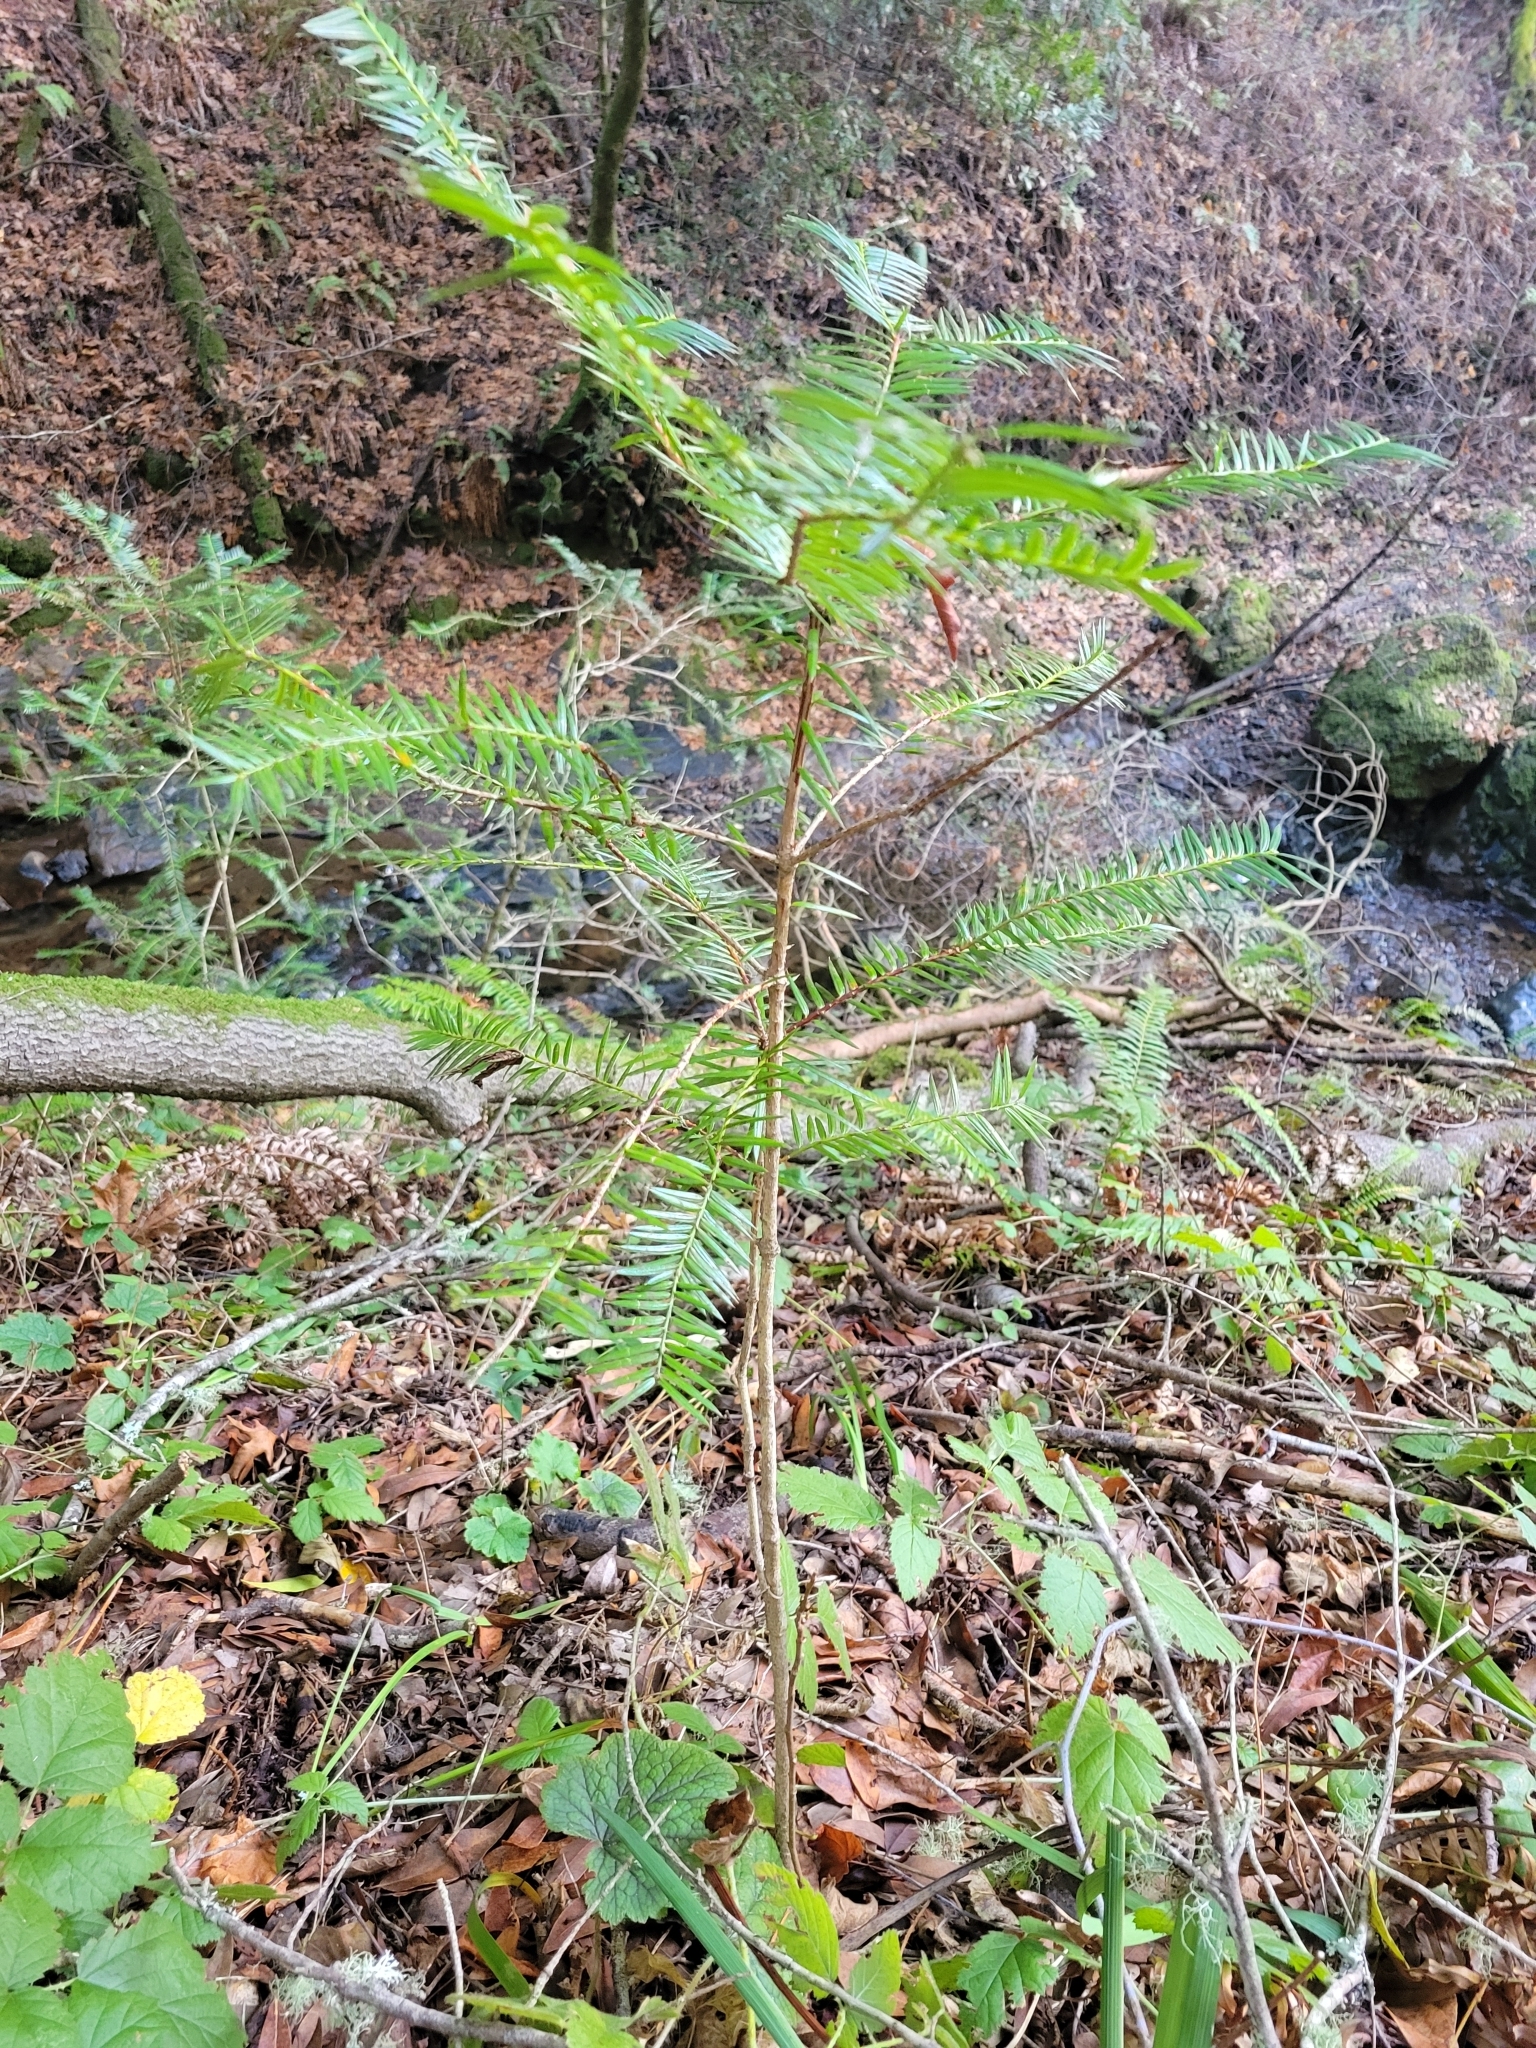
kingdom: Plantae
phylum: Tracheophyta
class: Pinopsida
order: Pinales
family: Taxaceae
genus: Torreya
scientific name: Torreya californica
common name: California torreya
